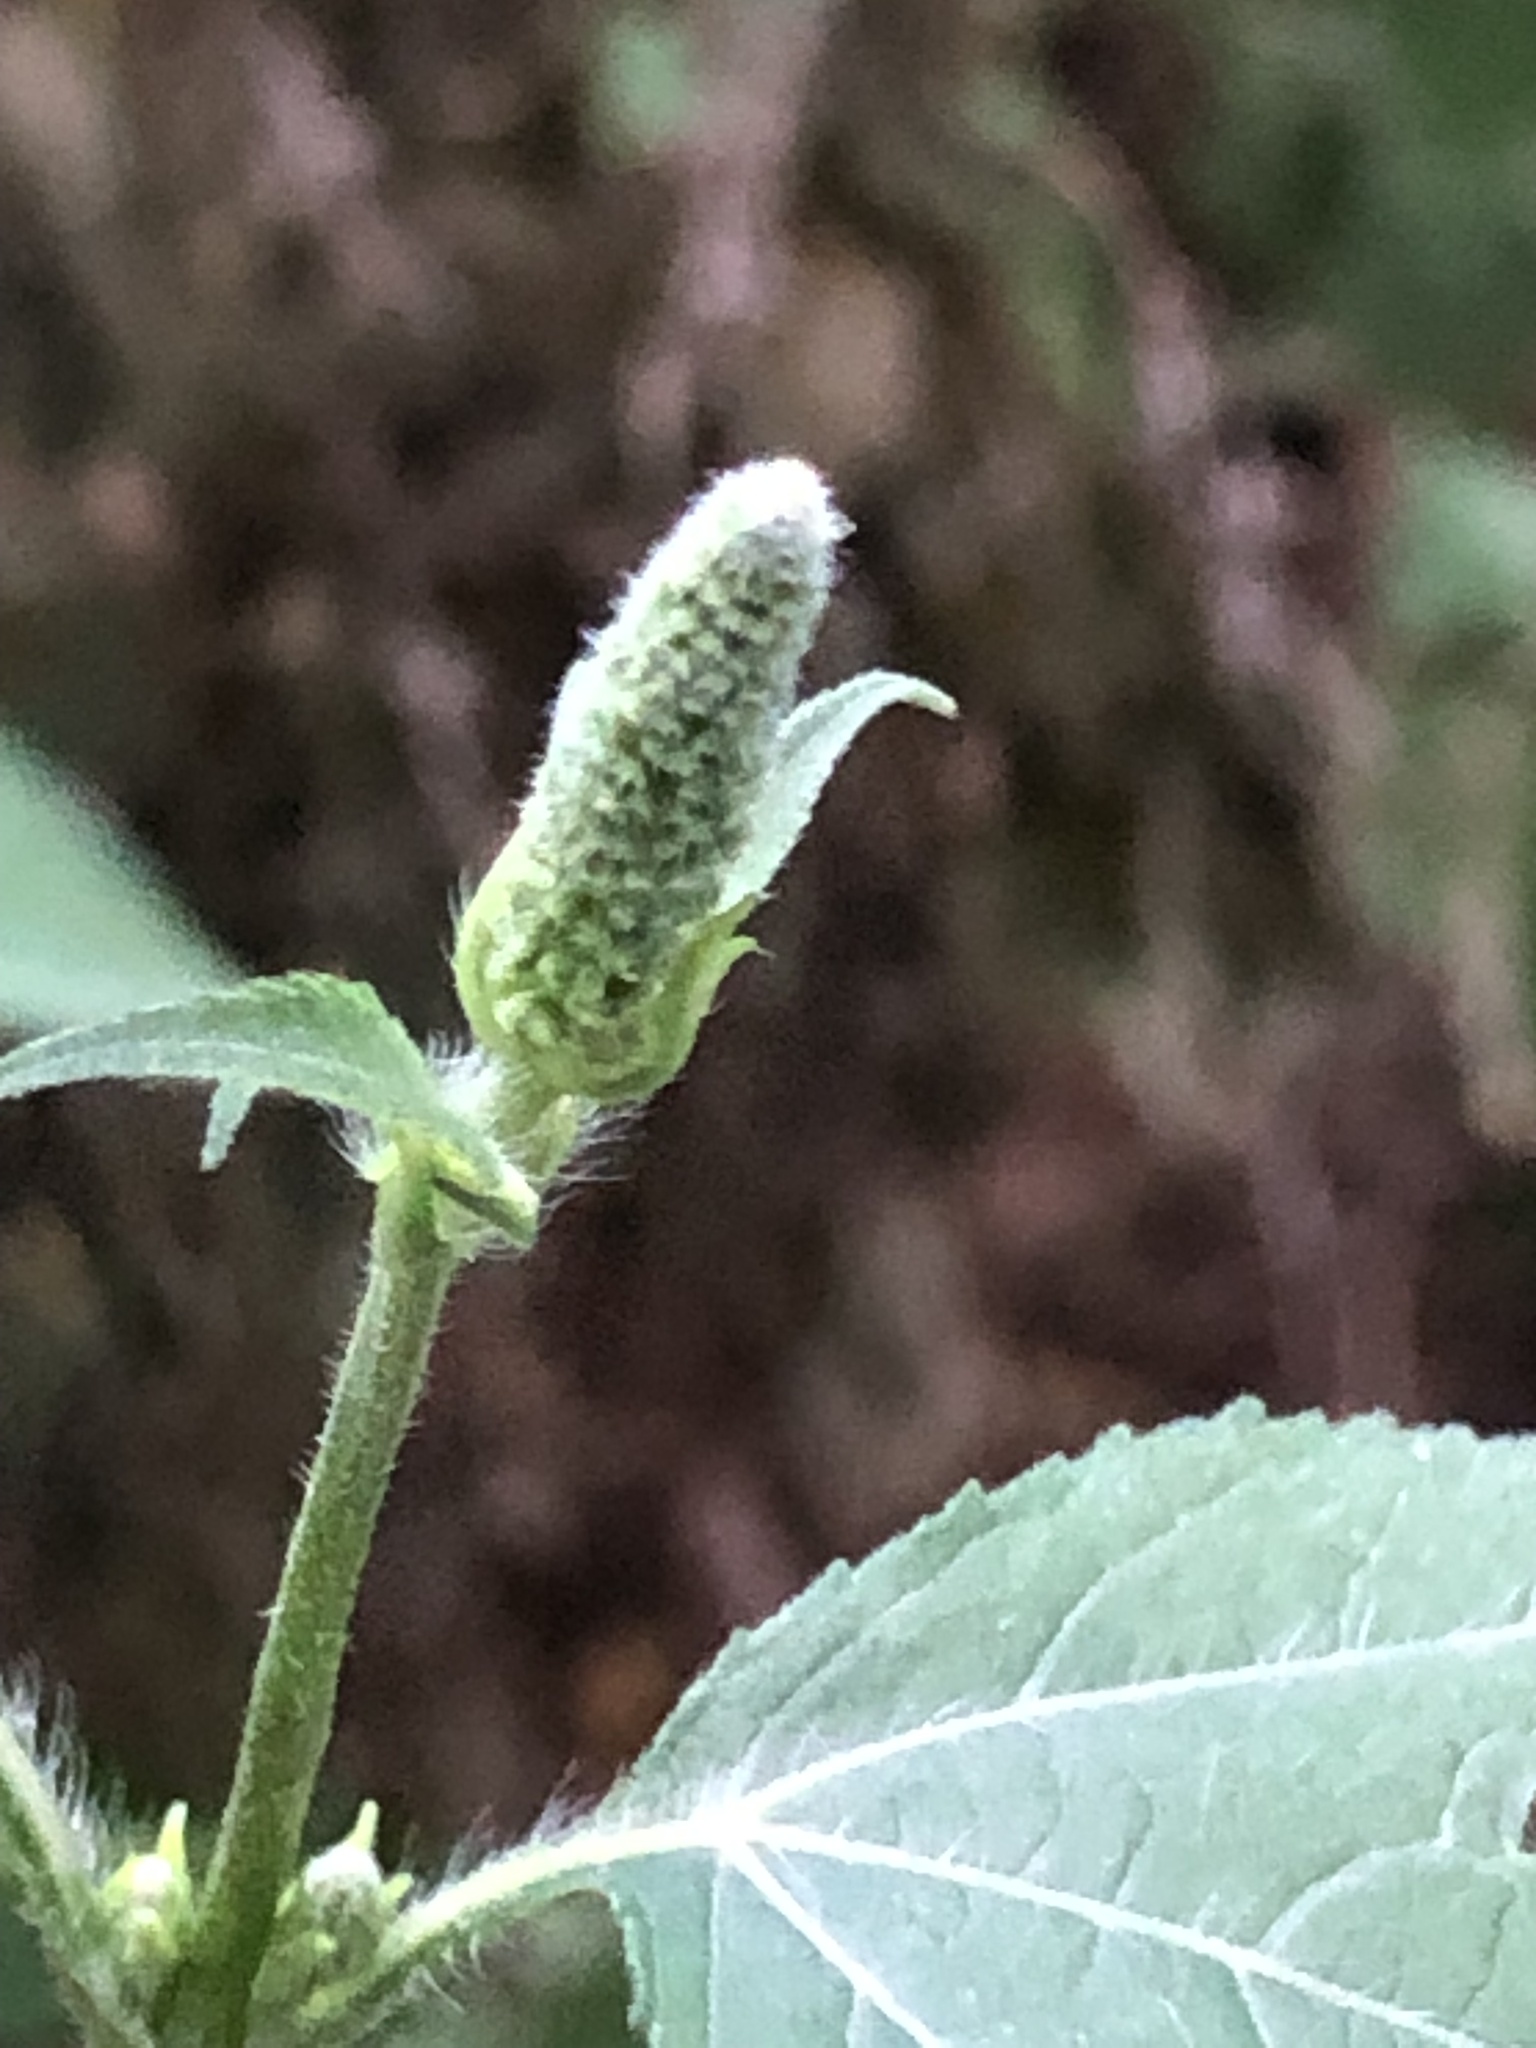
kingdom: Plantae
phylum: Tracheophyta
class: Magnoliopsida
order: Asterales
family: Asteraceae
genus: Ambrosia
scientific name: Ambrosia trifida
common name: Giant ragweed
